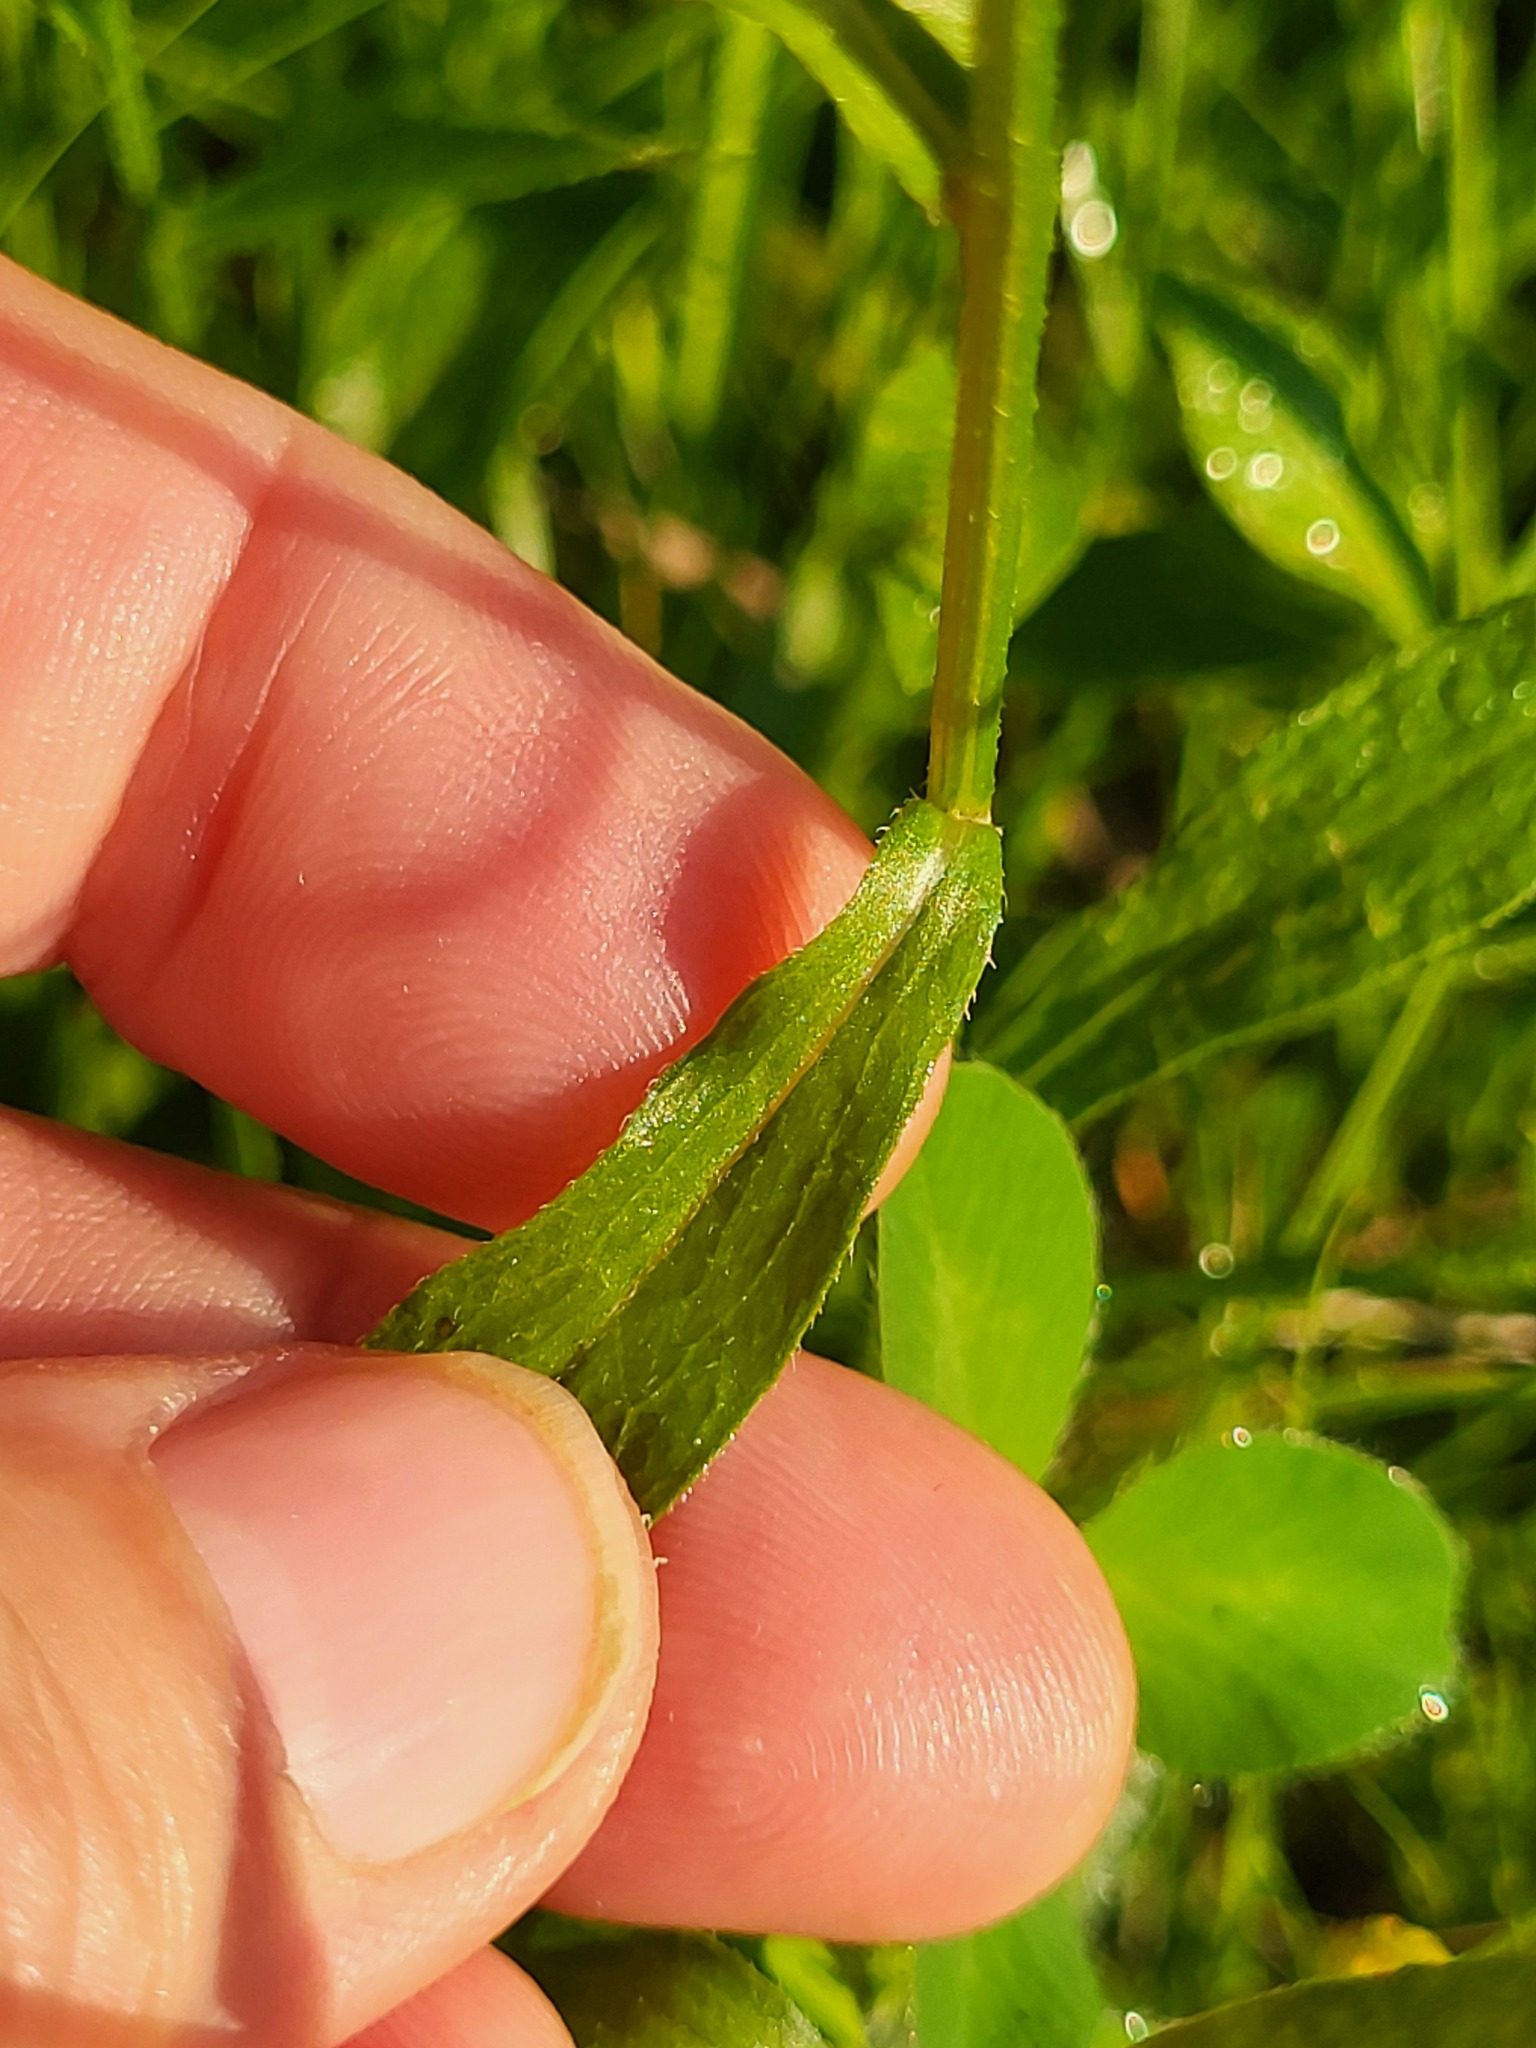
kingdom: Plantae
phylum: Tracheophyta
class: Magnoliopsida
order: Asterales
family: Asteraceae
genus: Erigeron
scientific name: Erigeron strigosus
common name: Common eastern fleabane
